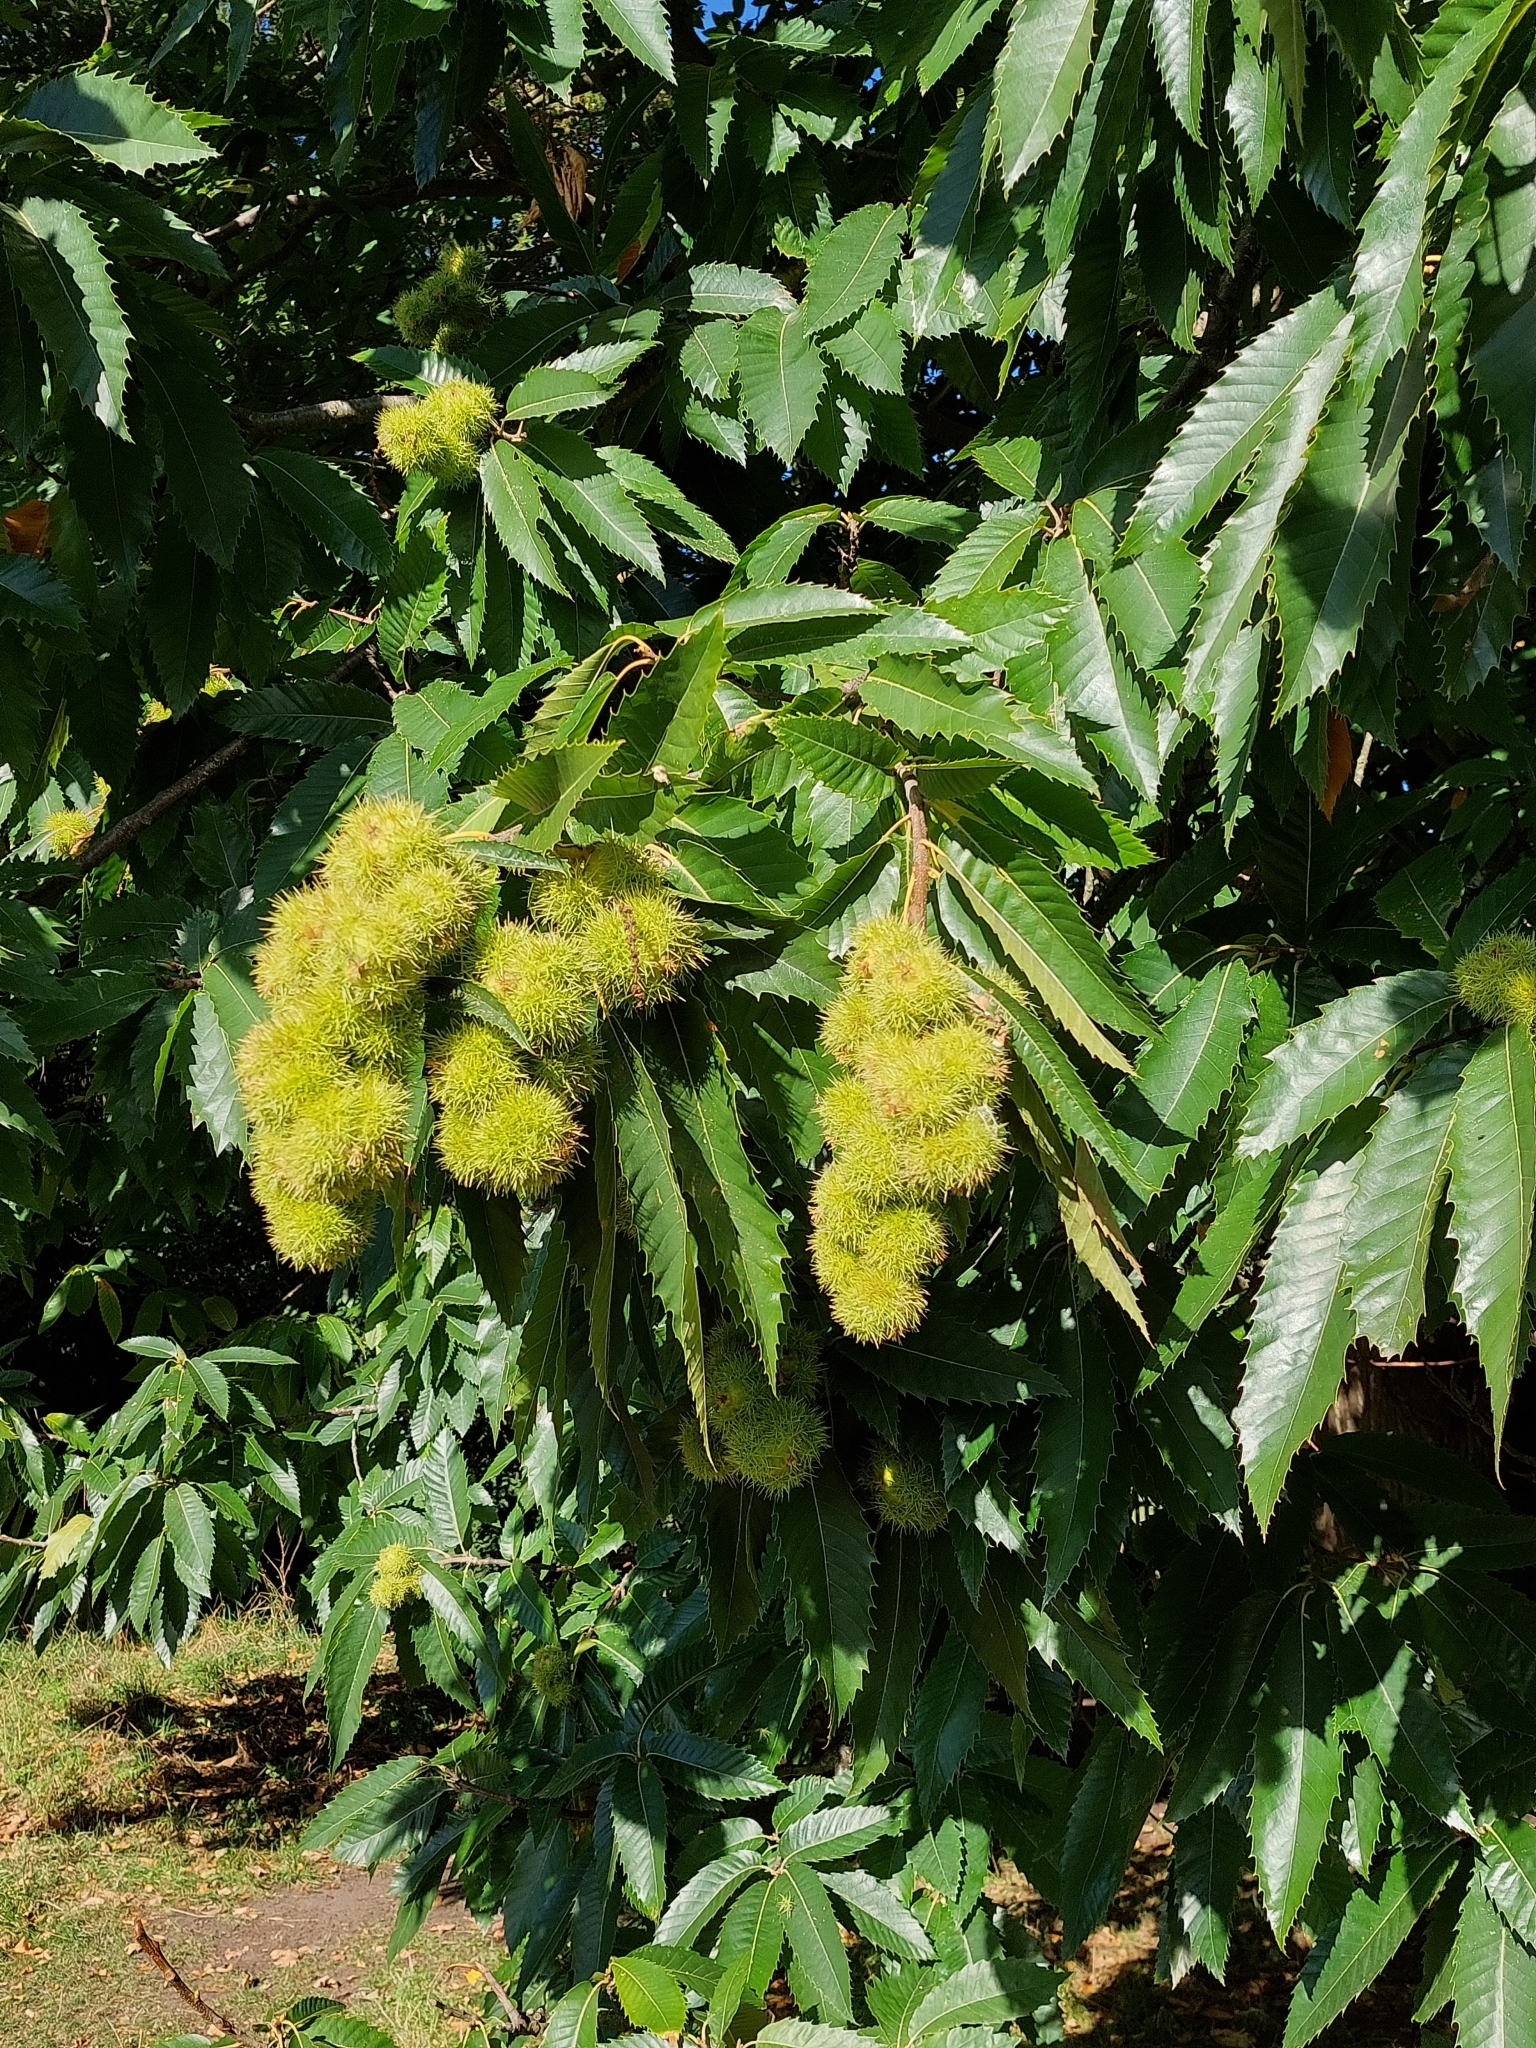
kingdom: Plantae
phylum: Tracheophyta
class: Magnoliopsida
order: Fagales
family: Fagaceae
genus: Castanea
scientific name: Castanea sativa
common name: Sweet chestnut
